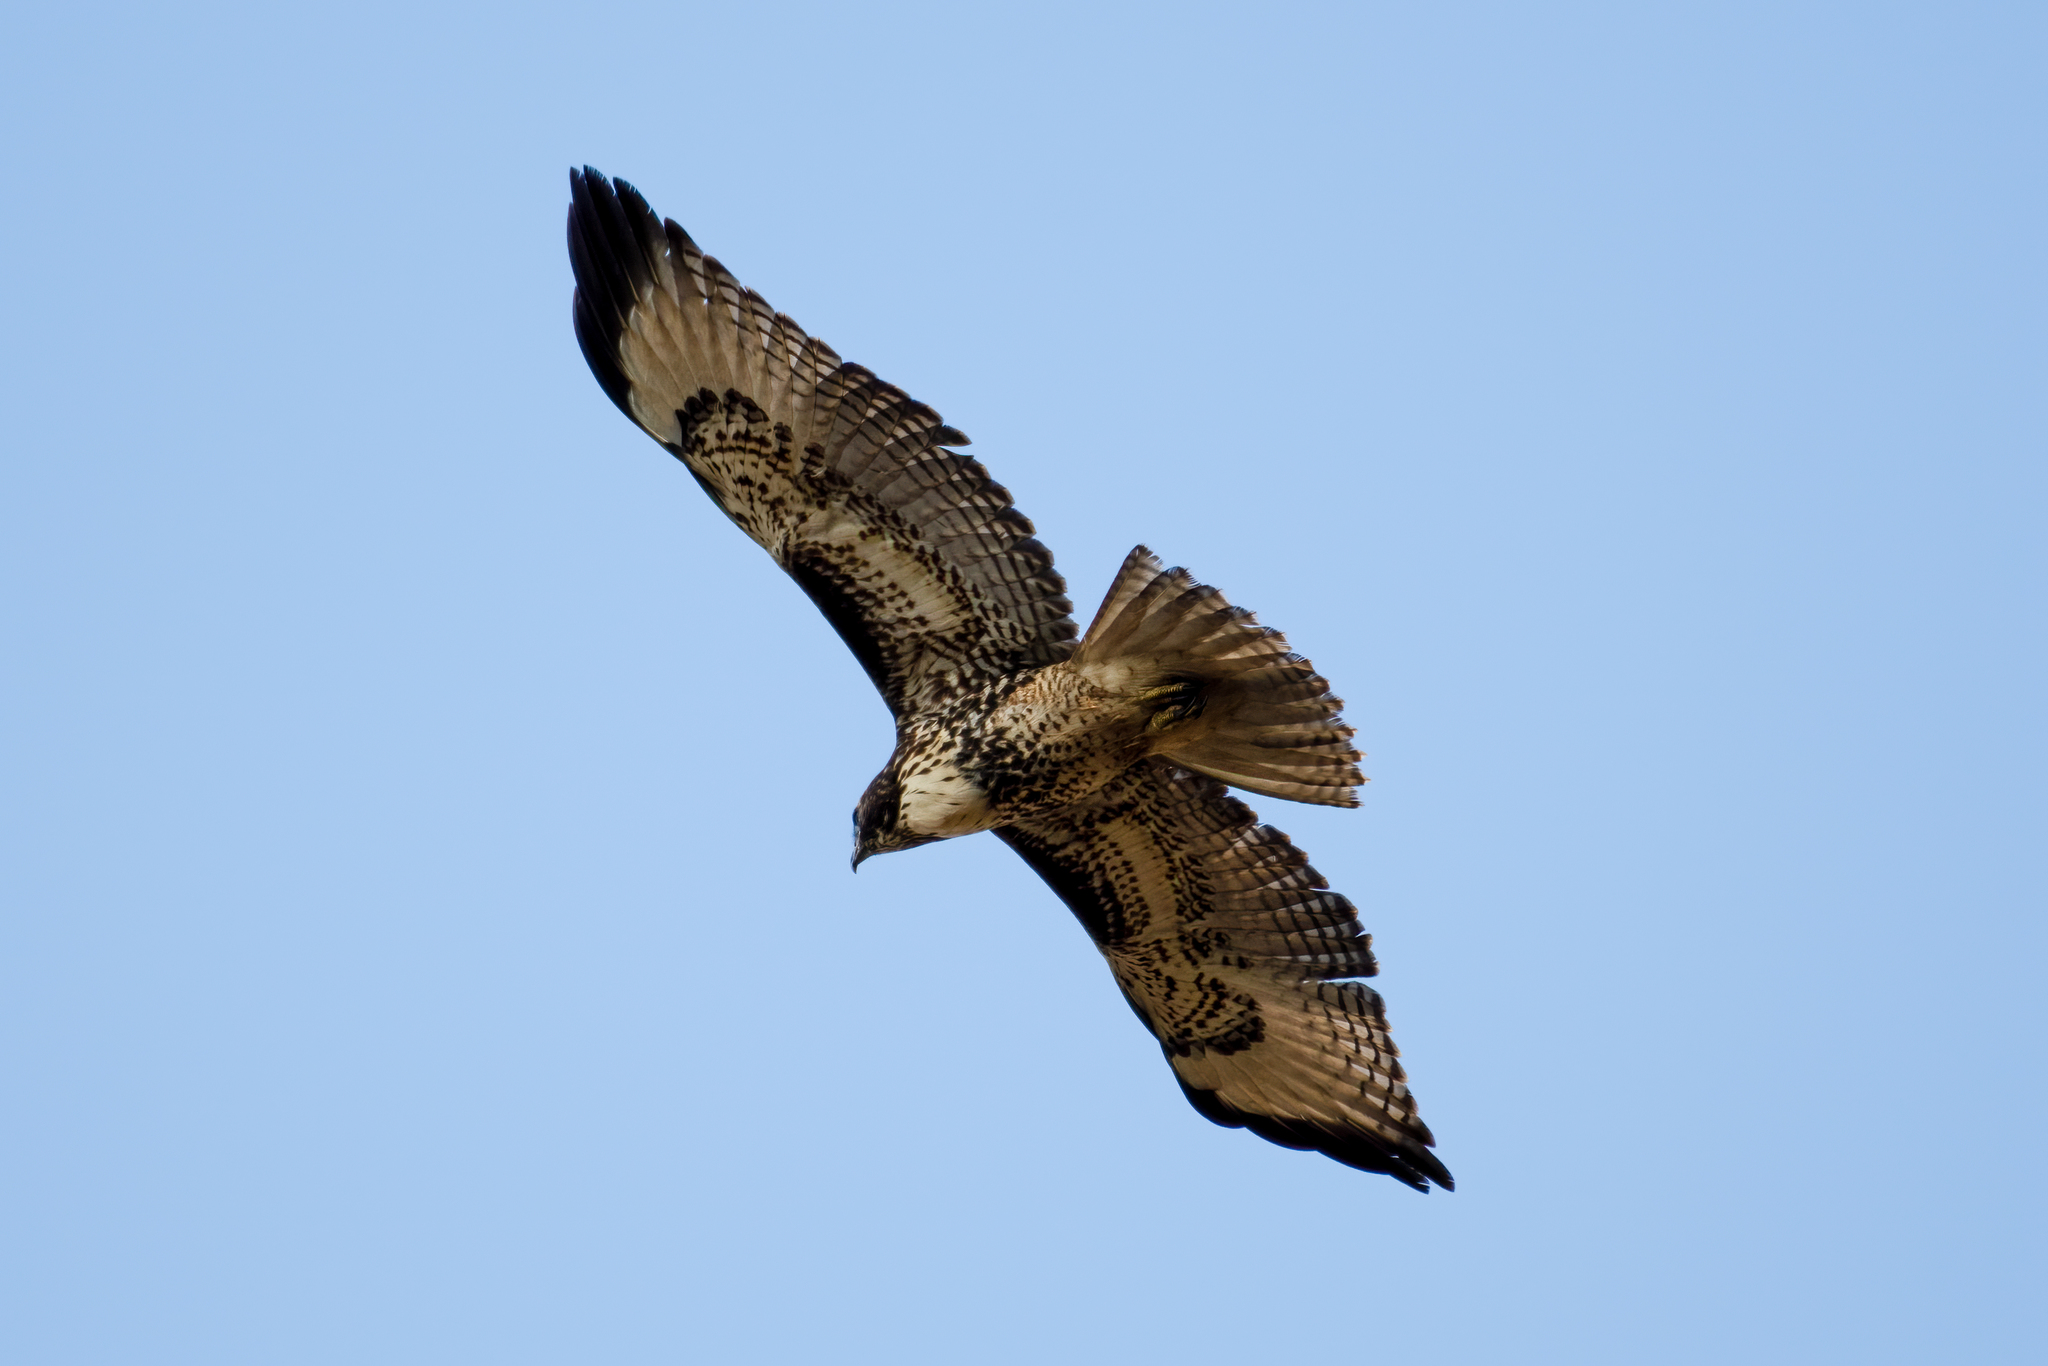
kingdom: Animalia
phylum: Chordata
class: Aves
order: Accipitriformes
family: Accipitridae
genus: Buteo
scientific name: Buteo jamaicensis
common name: Red-tailed hawk
